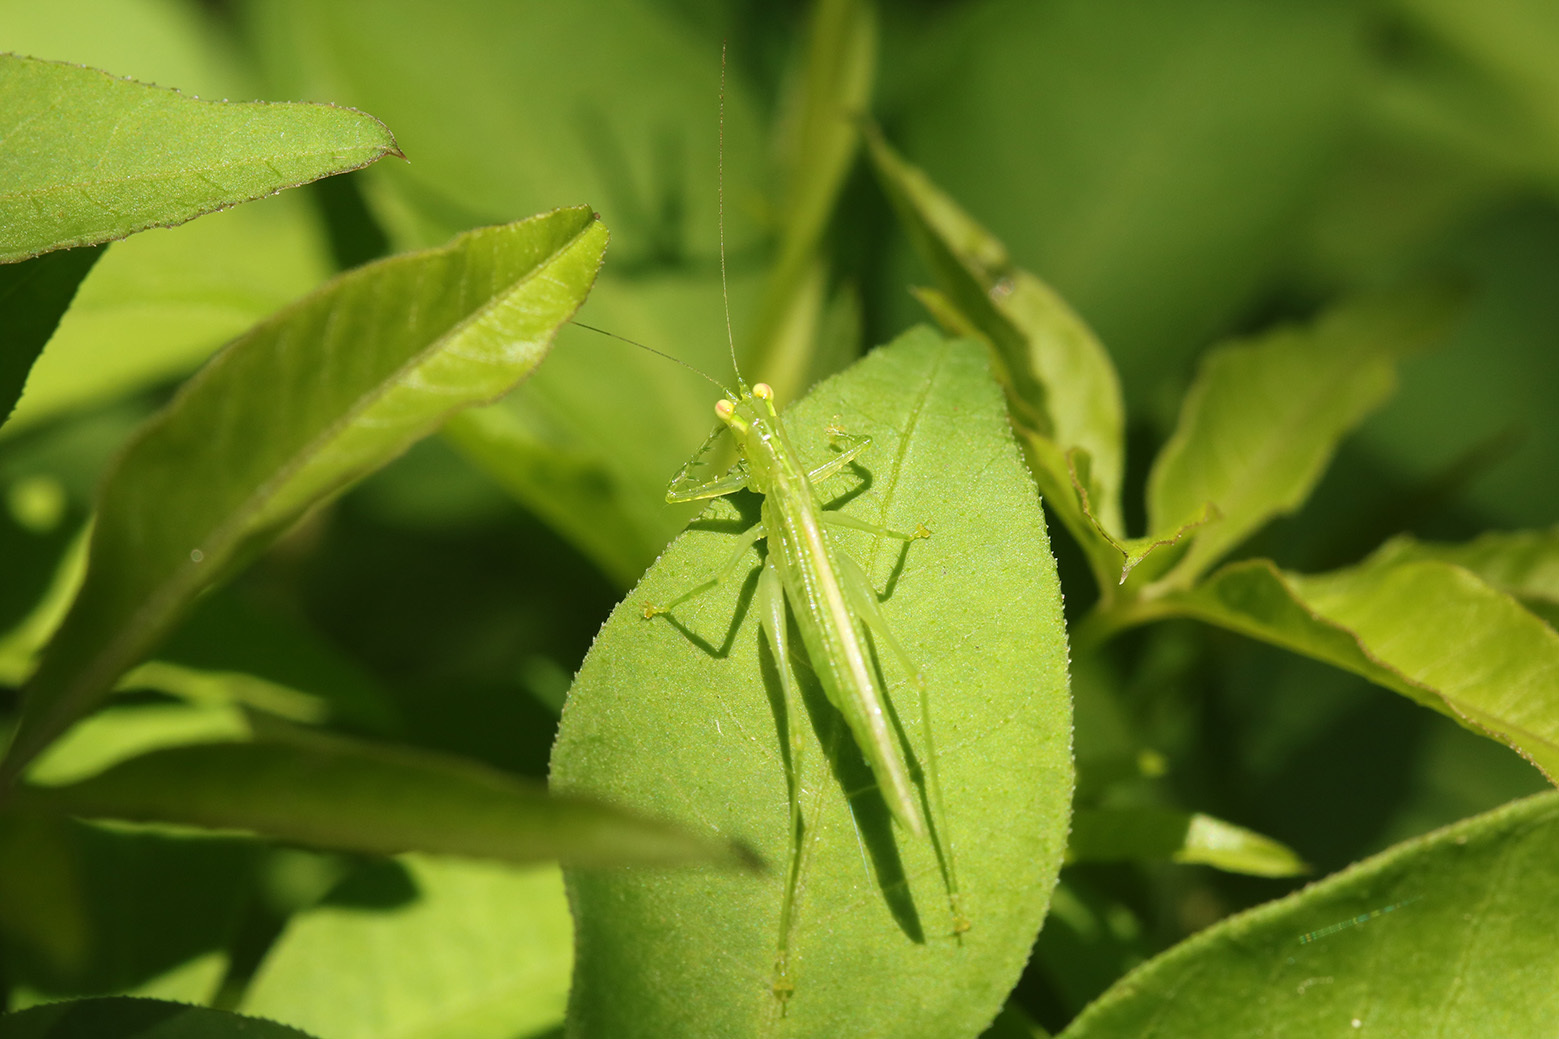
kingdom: Animalia
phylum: Arthropoda
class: Insecta
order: Orthoptera
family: Tettigoniidae
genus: Phlugis
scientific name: Phlugis proseni
